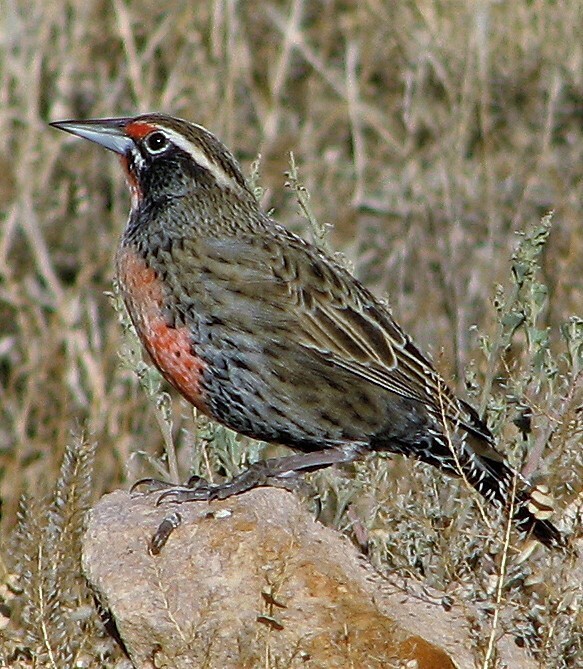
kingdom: Animalia
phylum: Chordata
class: Aves
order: Passeriformes
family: Icteridae
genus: Sturnella
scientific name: Sturnella loyca
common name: Long-tailed meadowlark
